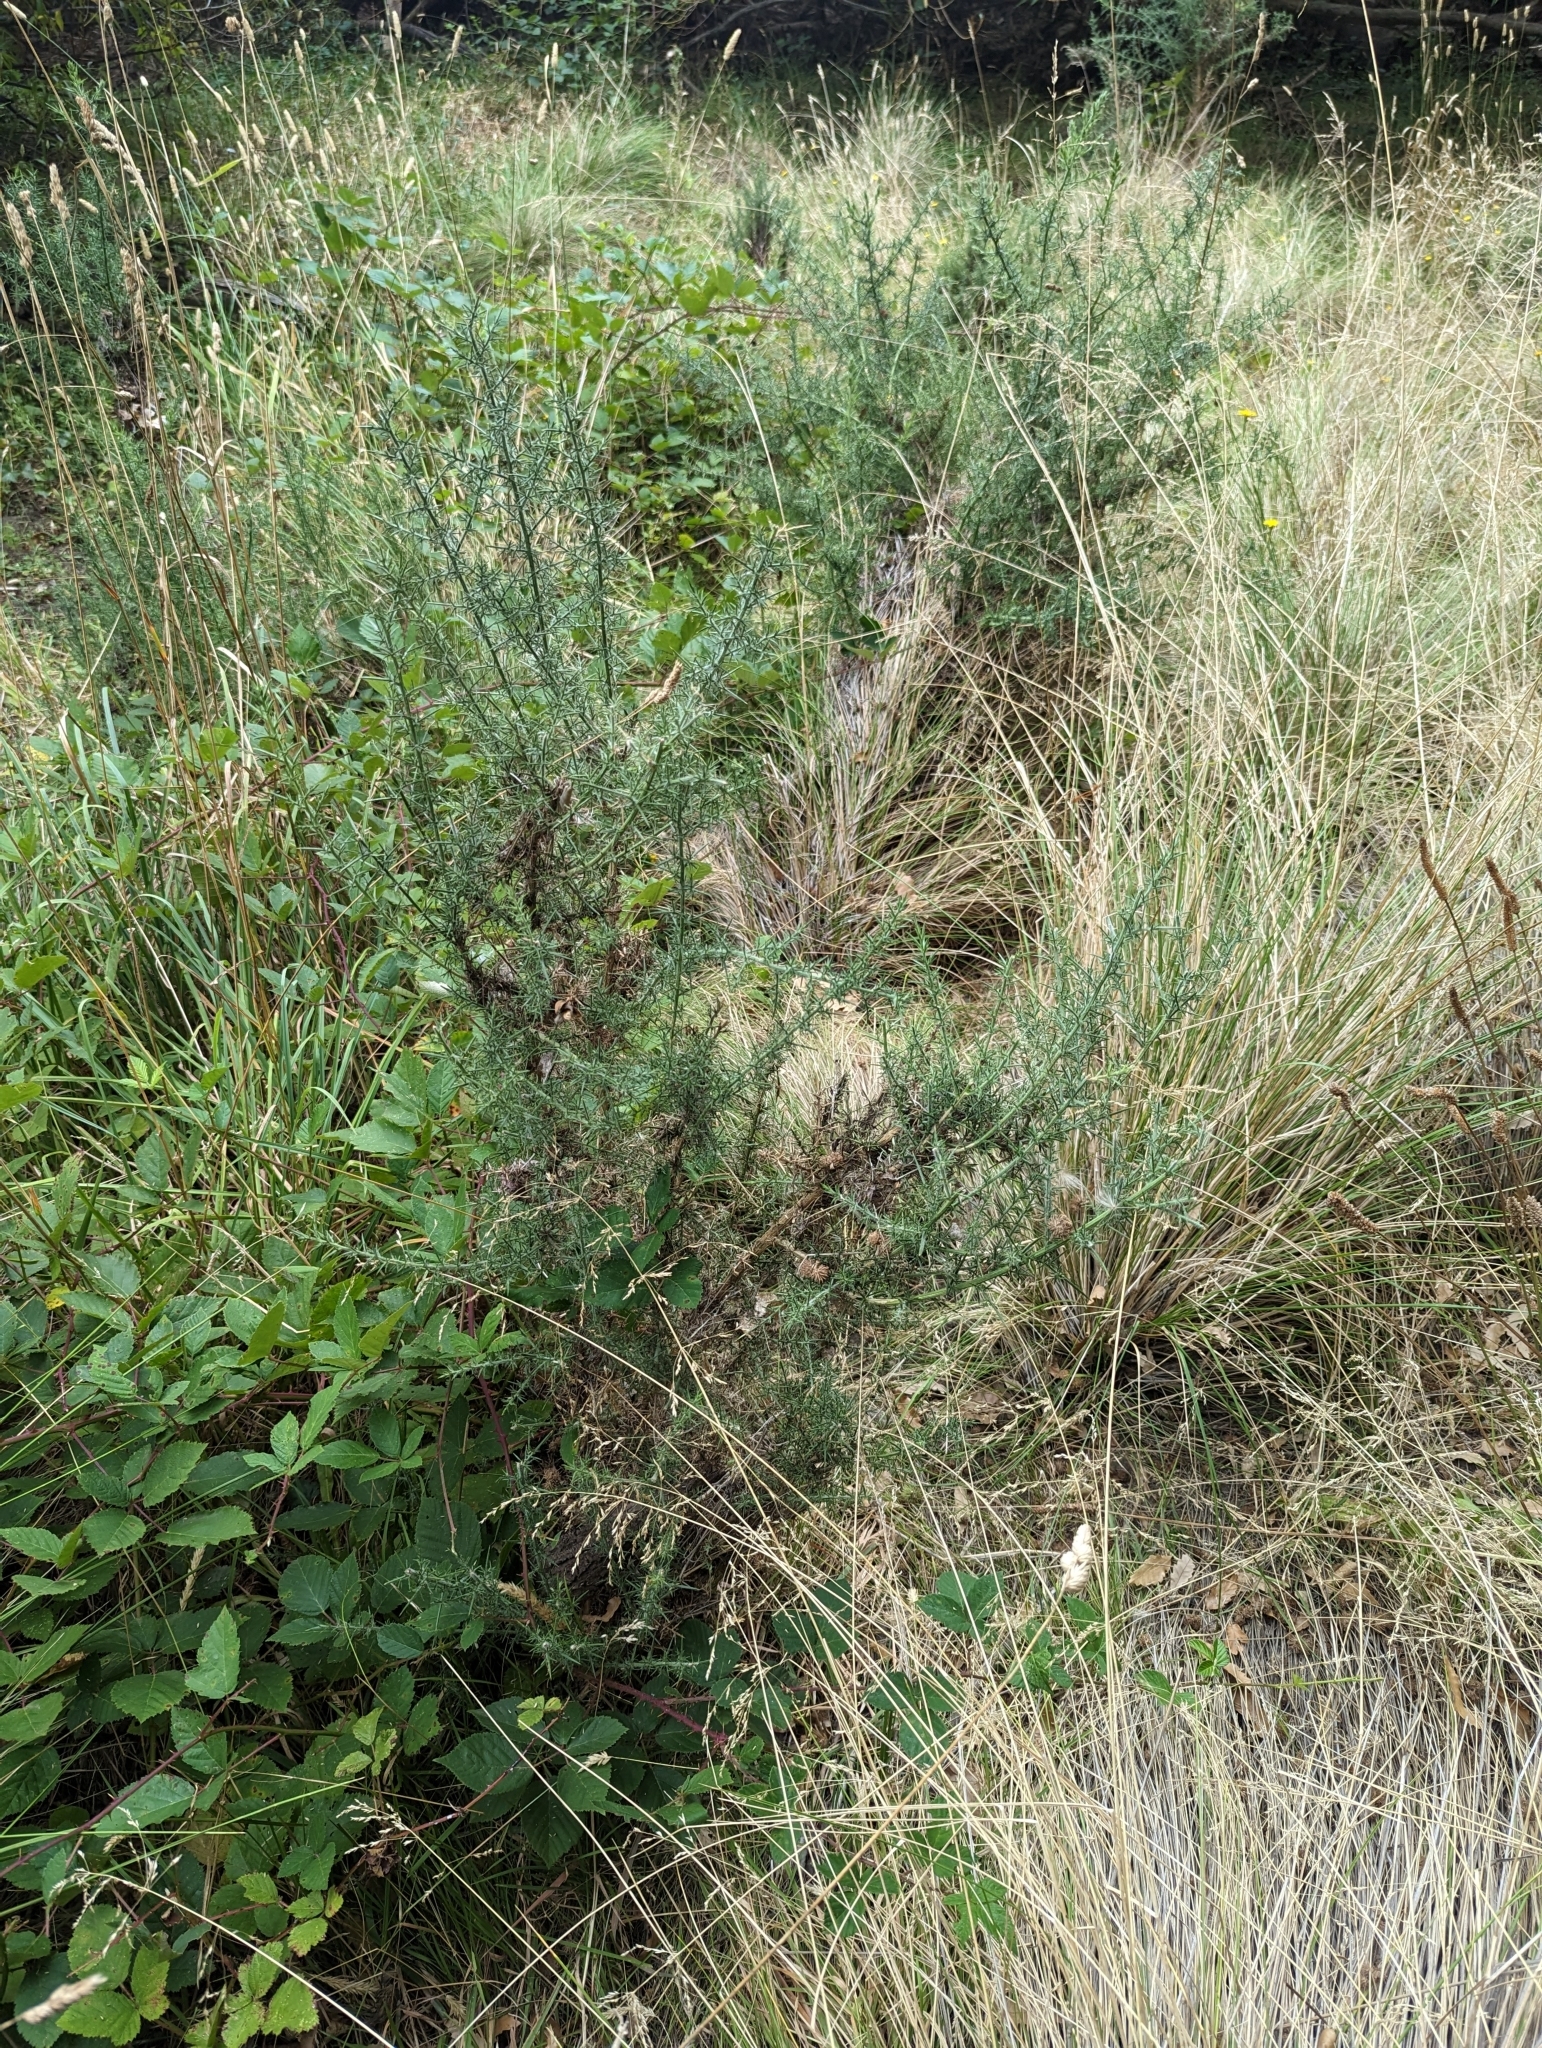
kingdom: Plantae
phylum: Tracheophyta
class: Magnoliopsida
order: Fabales
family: Fabaceae
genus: Ulex
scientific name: Ulex europaeus
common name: Common gorse
